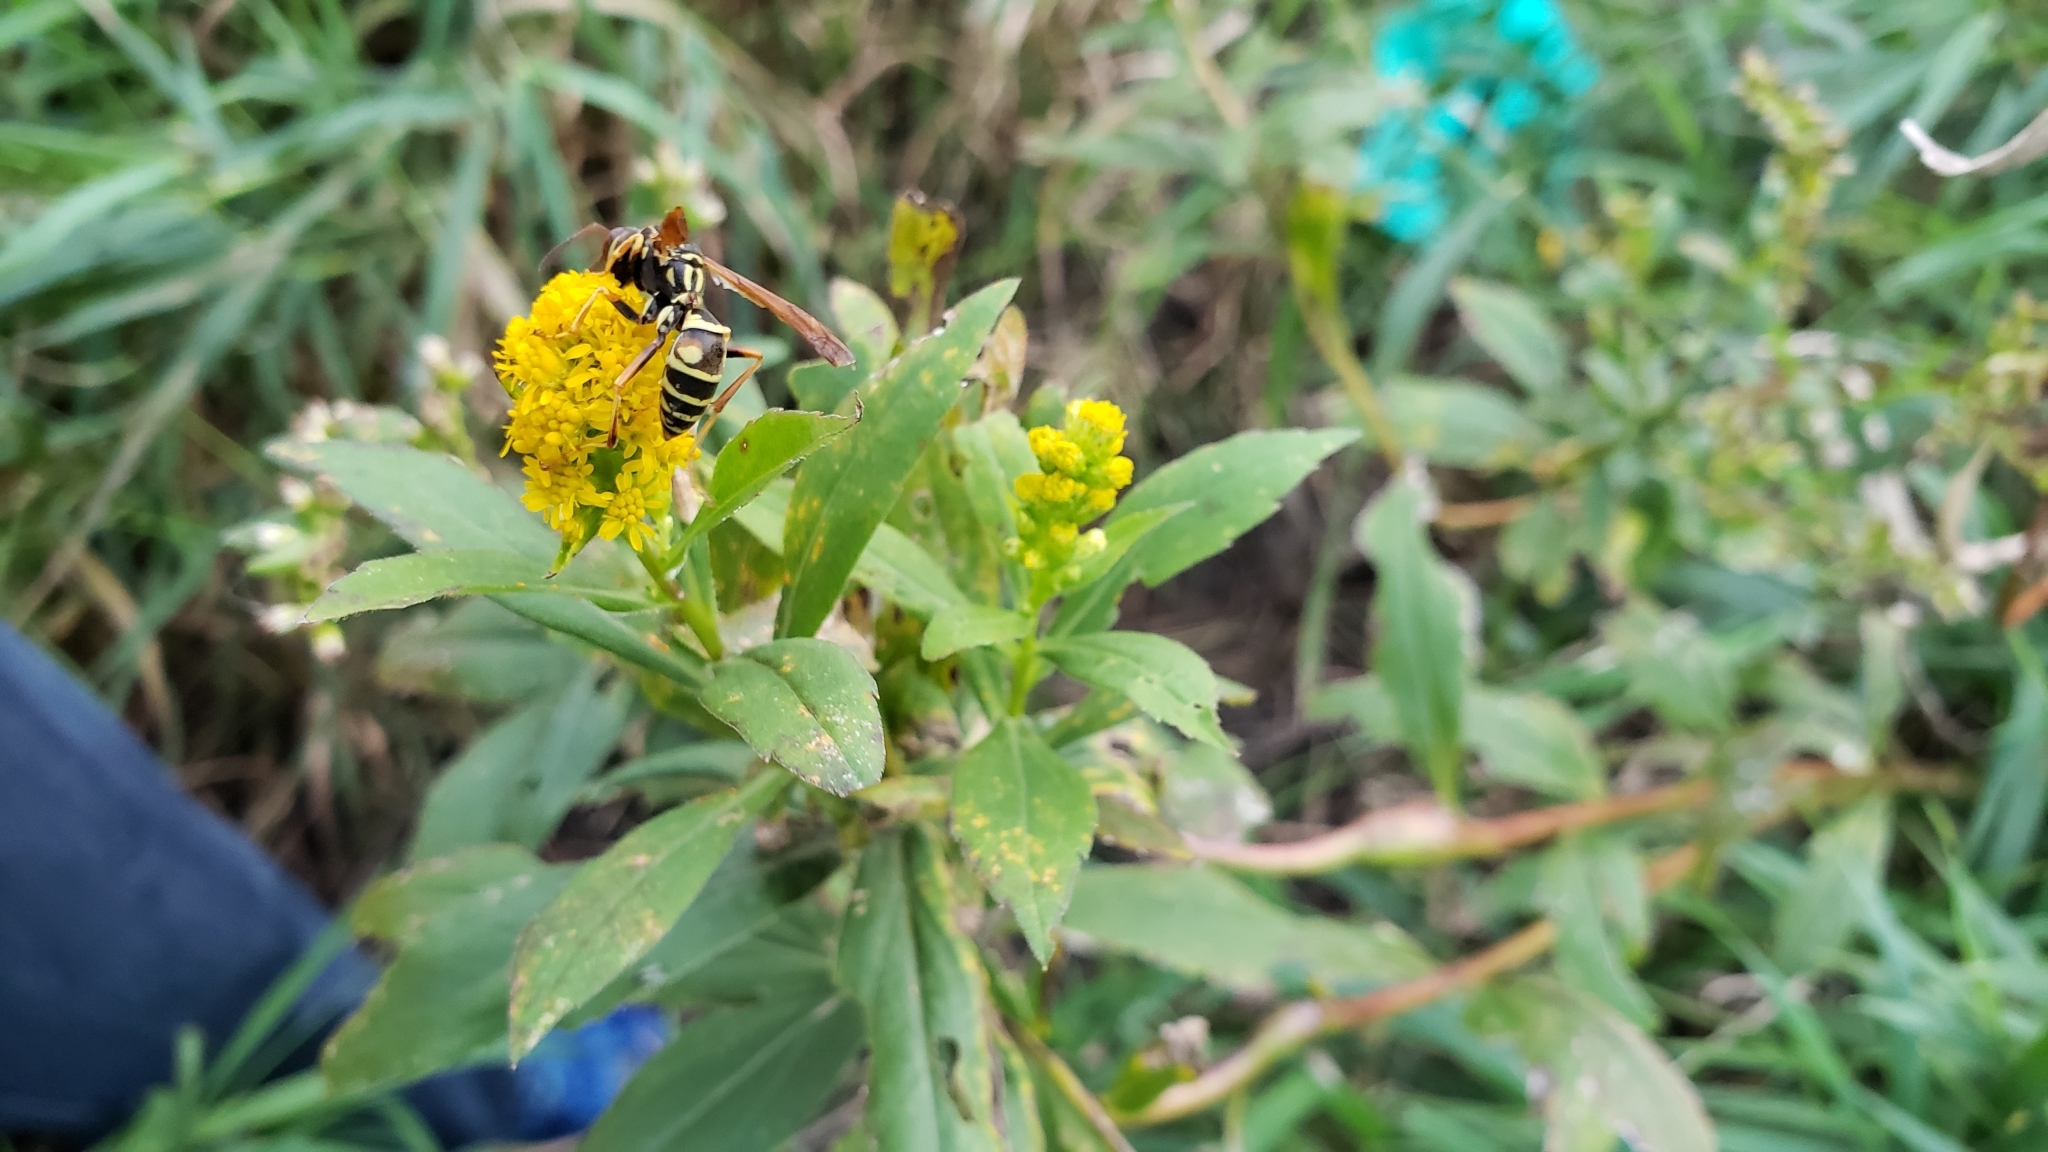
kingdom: Animalia
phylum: Arthropoda
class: Insecta
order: Hymenoptera
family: Eumenidae
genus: Polistes
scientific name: Polistes fuscatus
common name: Dark paper wasp
